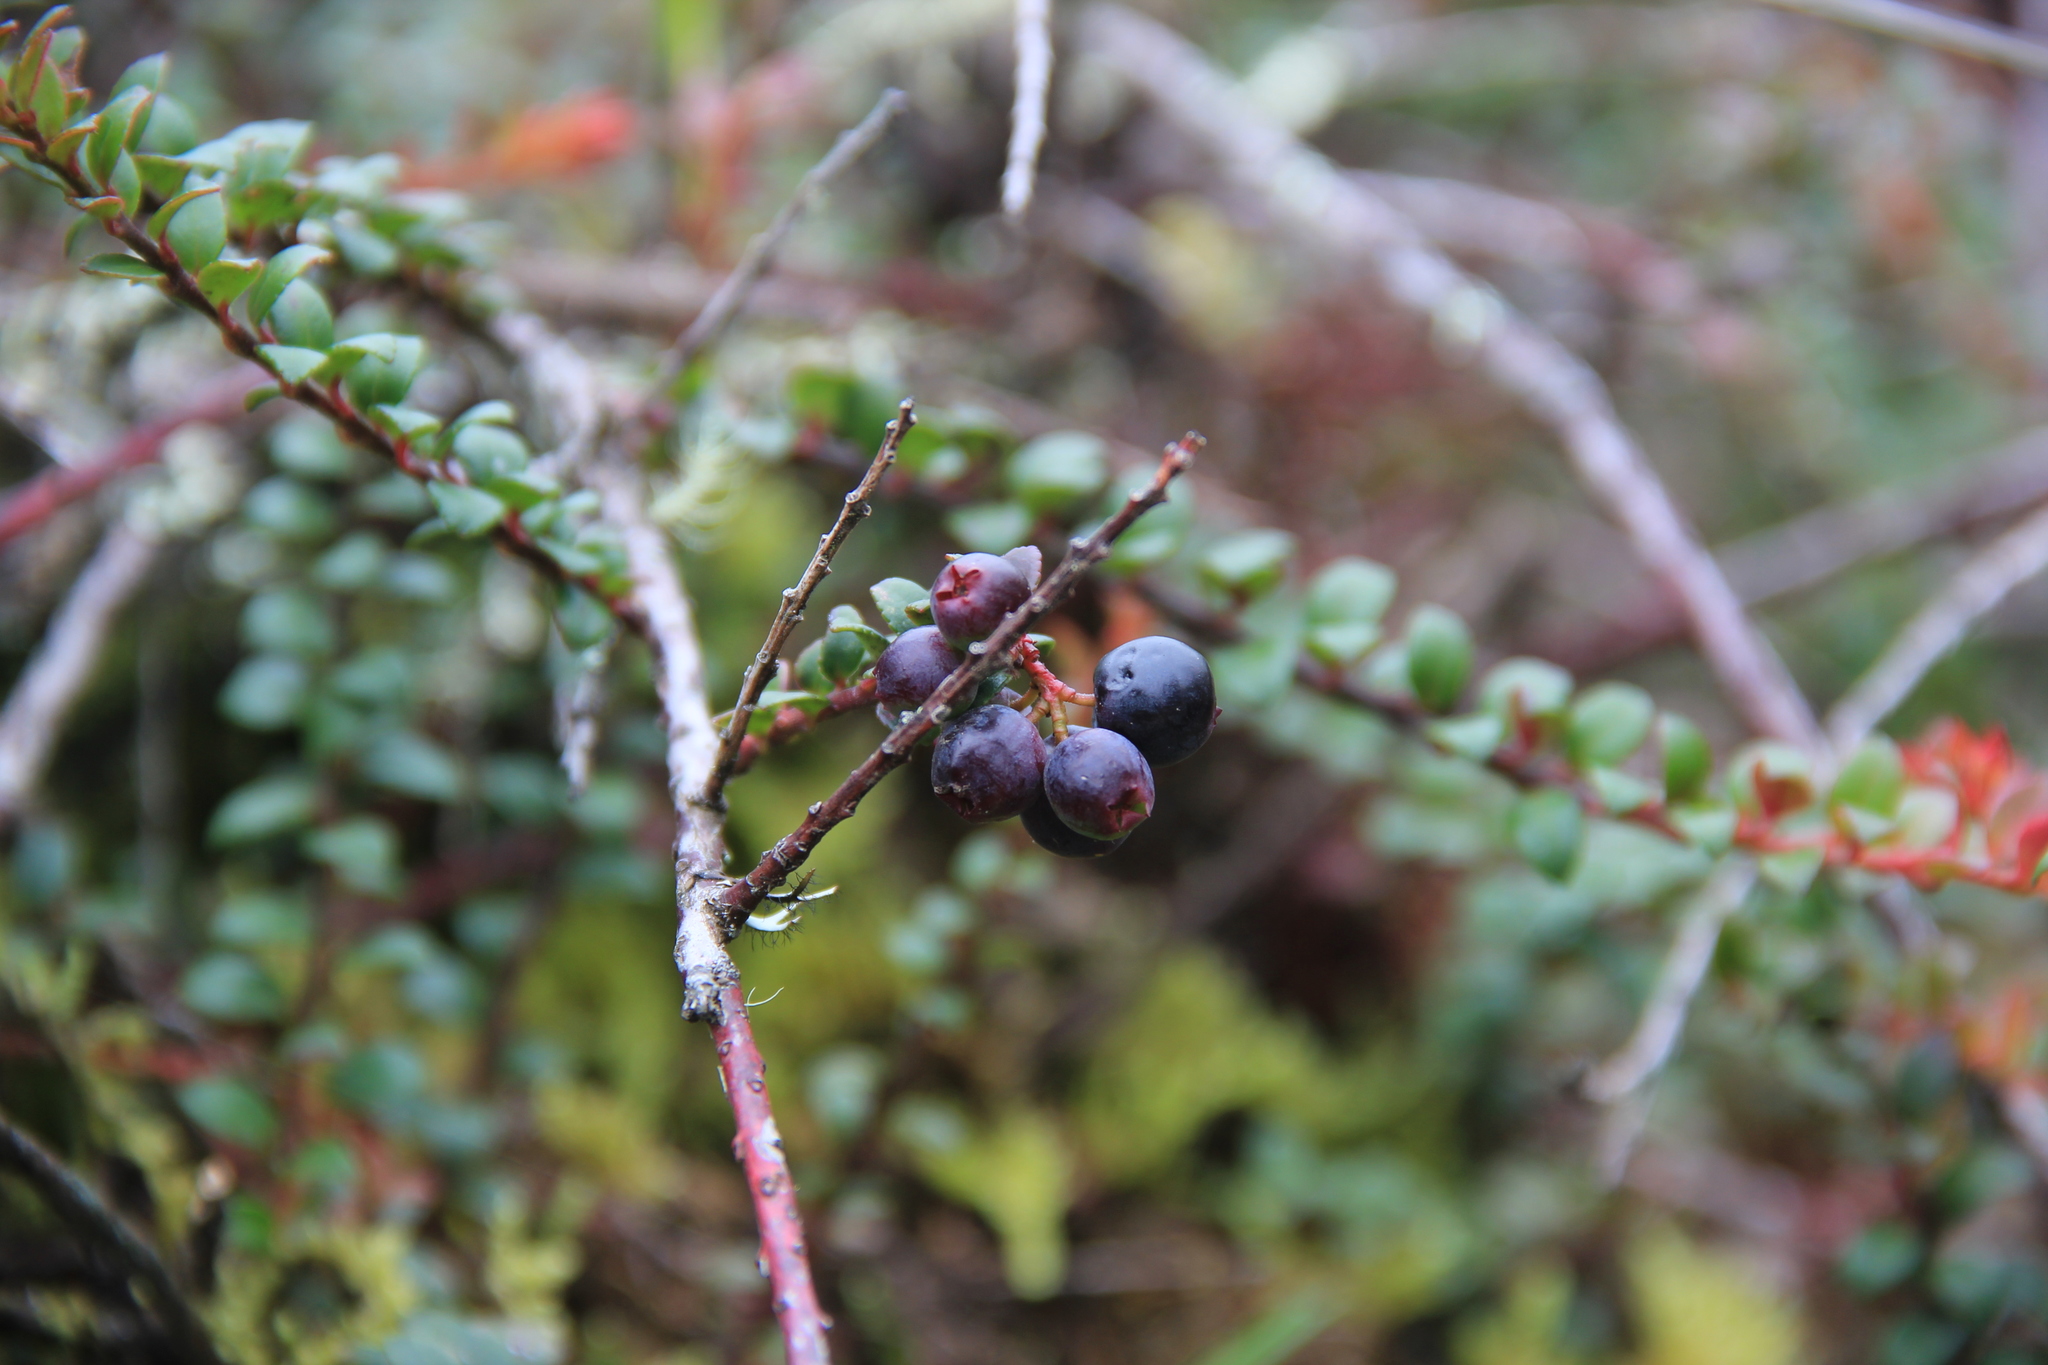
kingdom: Plantae
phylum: Tracheophyta
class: Magnoliopsida
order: Ericales
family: Ericaceae
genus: Vaccinium
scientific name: Vaccinium floribundum
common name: Colombian blueberry
